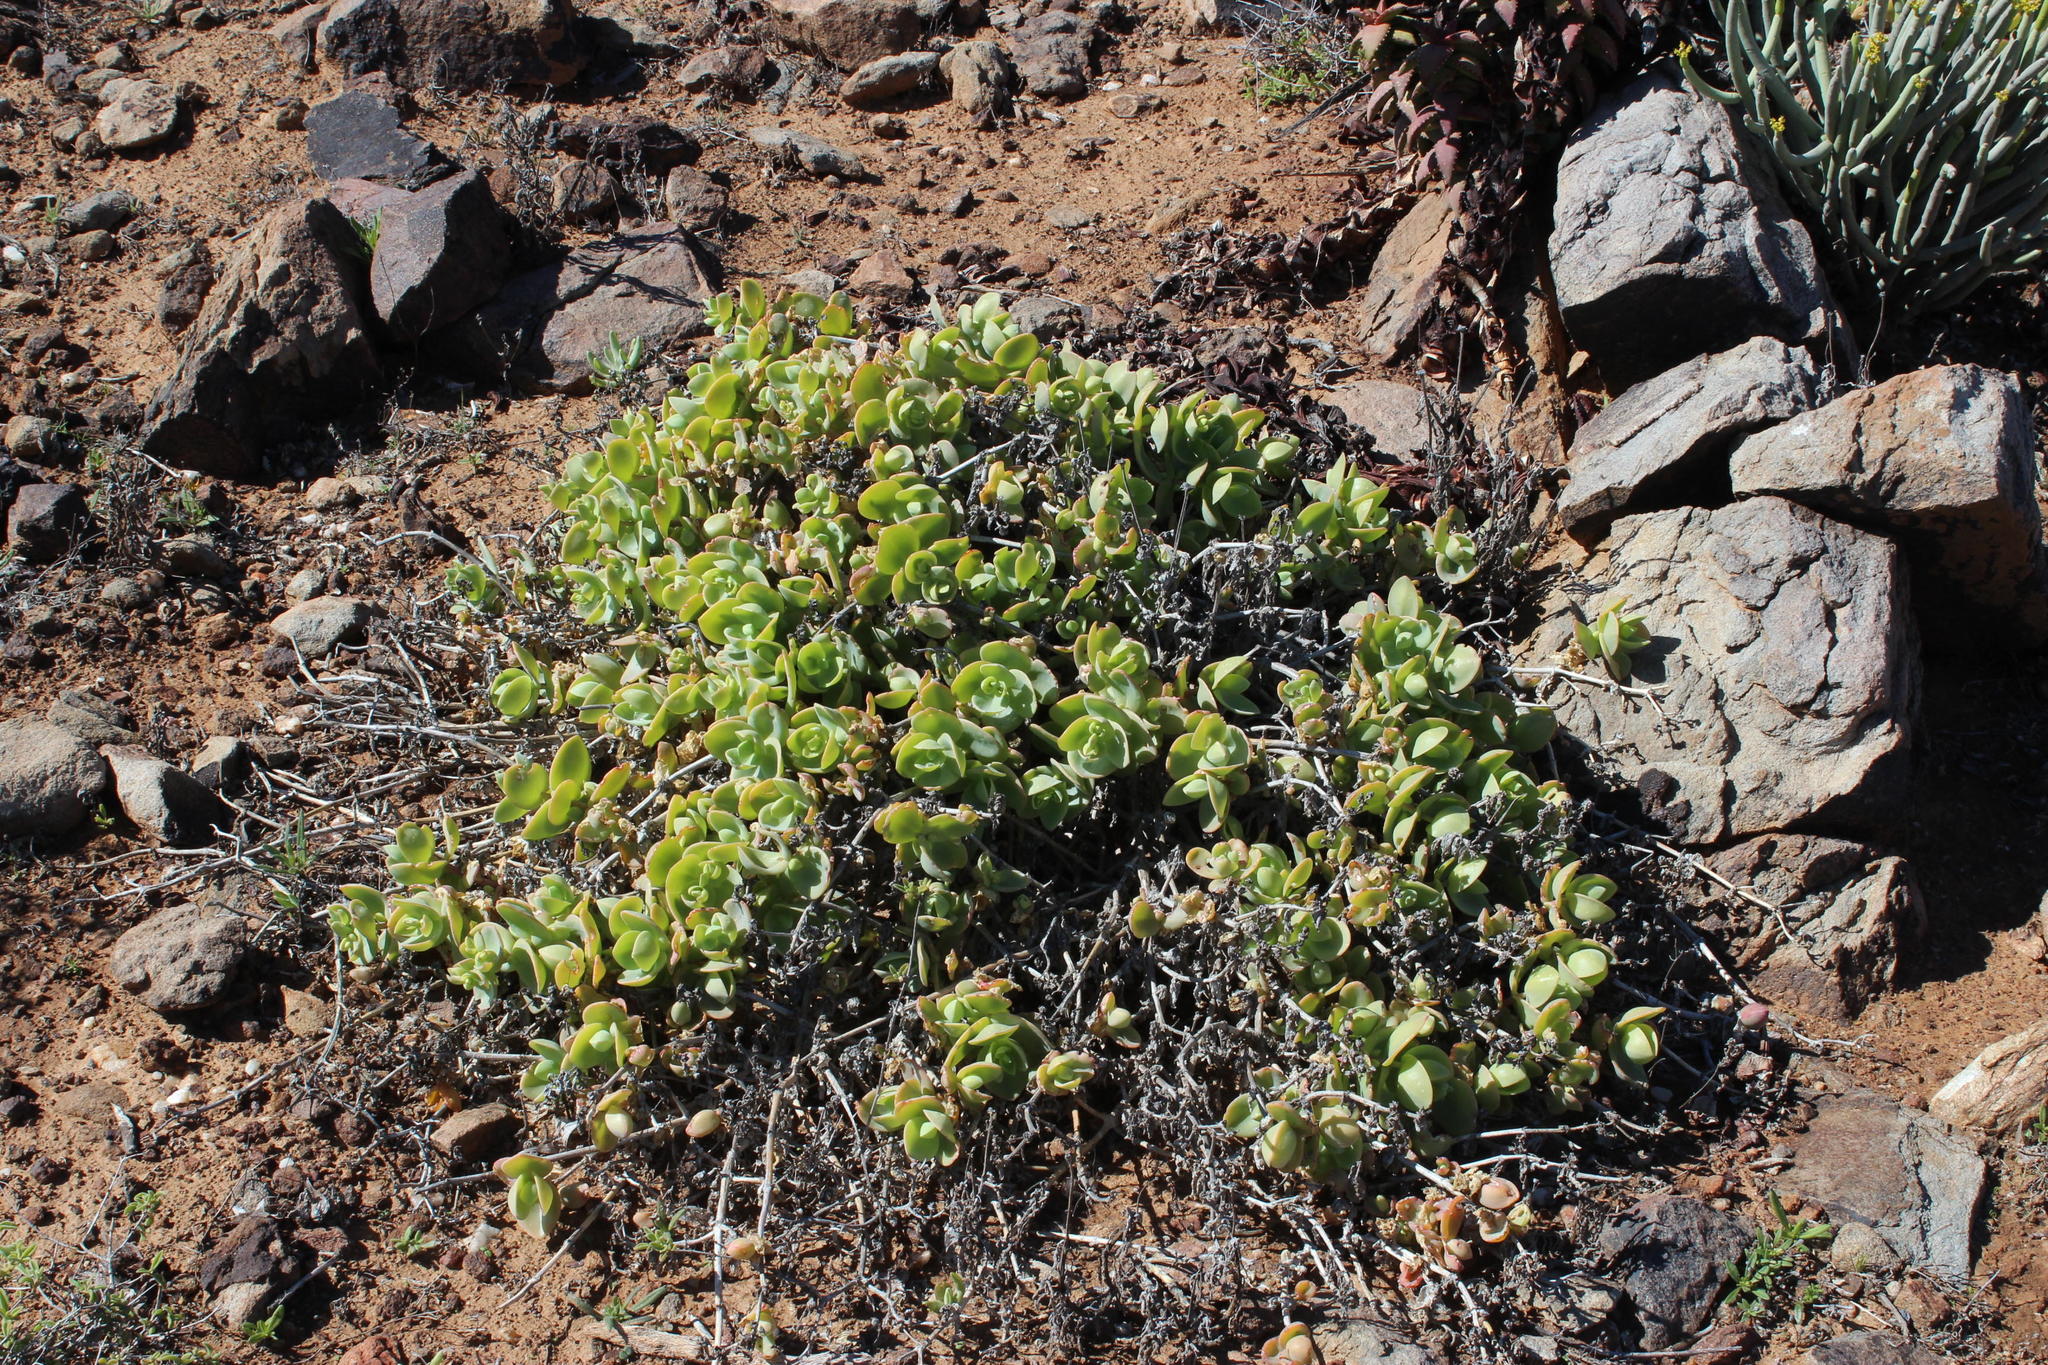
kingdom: Plantae
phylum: Tracheophyta
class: Magnoliopsida
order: Caryophyllales
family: Aizoaceae
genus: Mesembryanthemum
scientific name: Mesembryanthemum sladenianum
